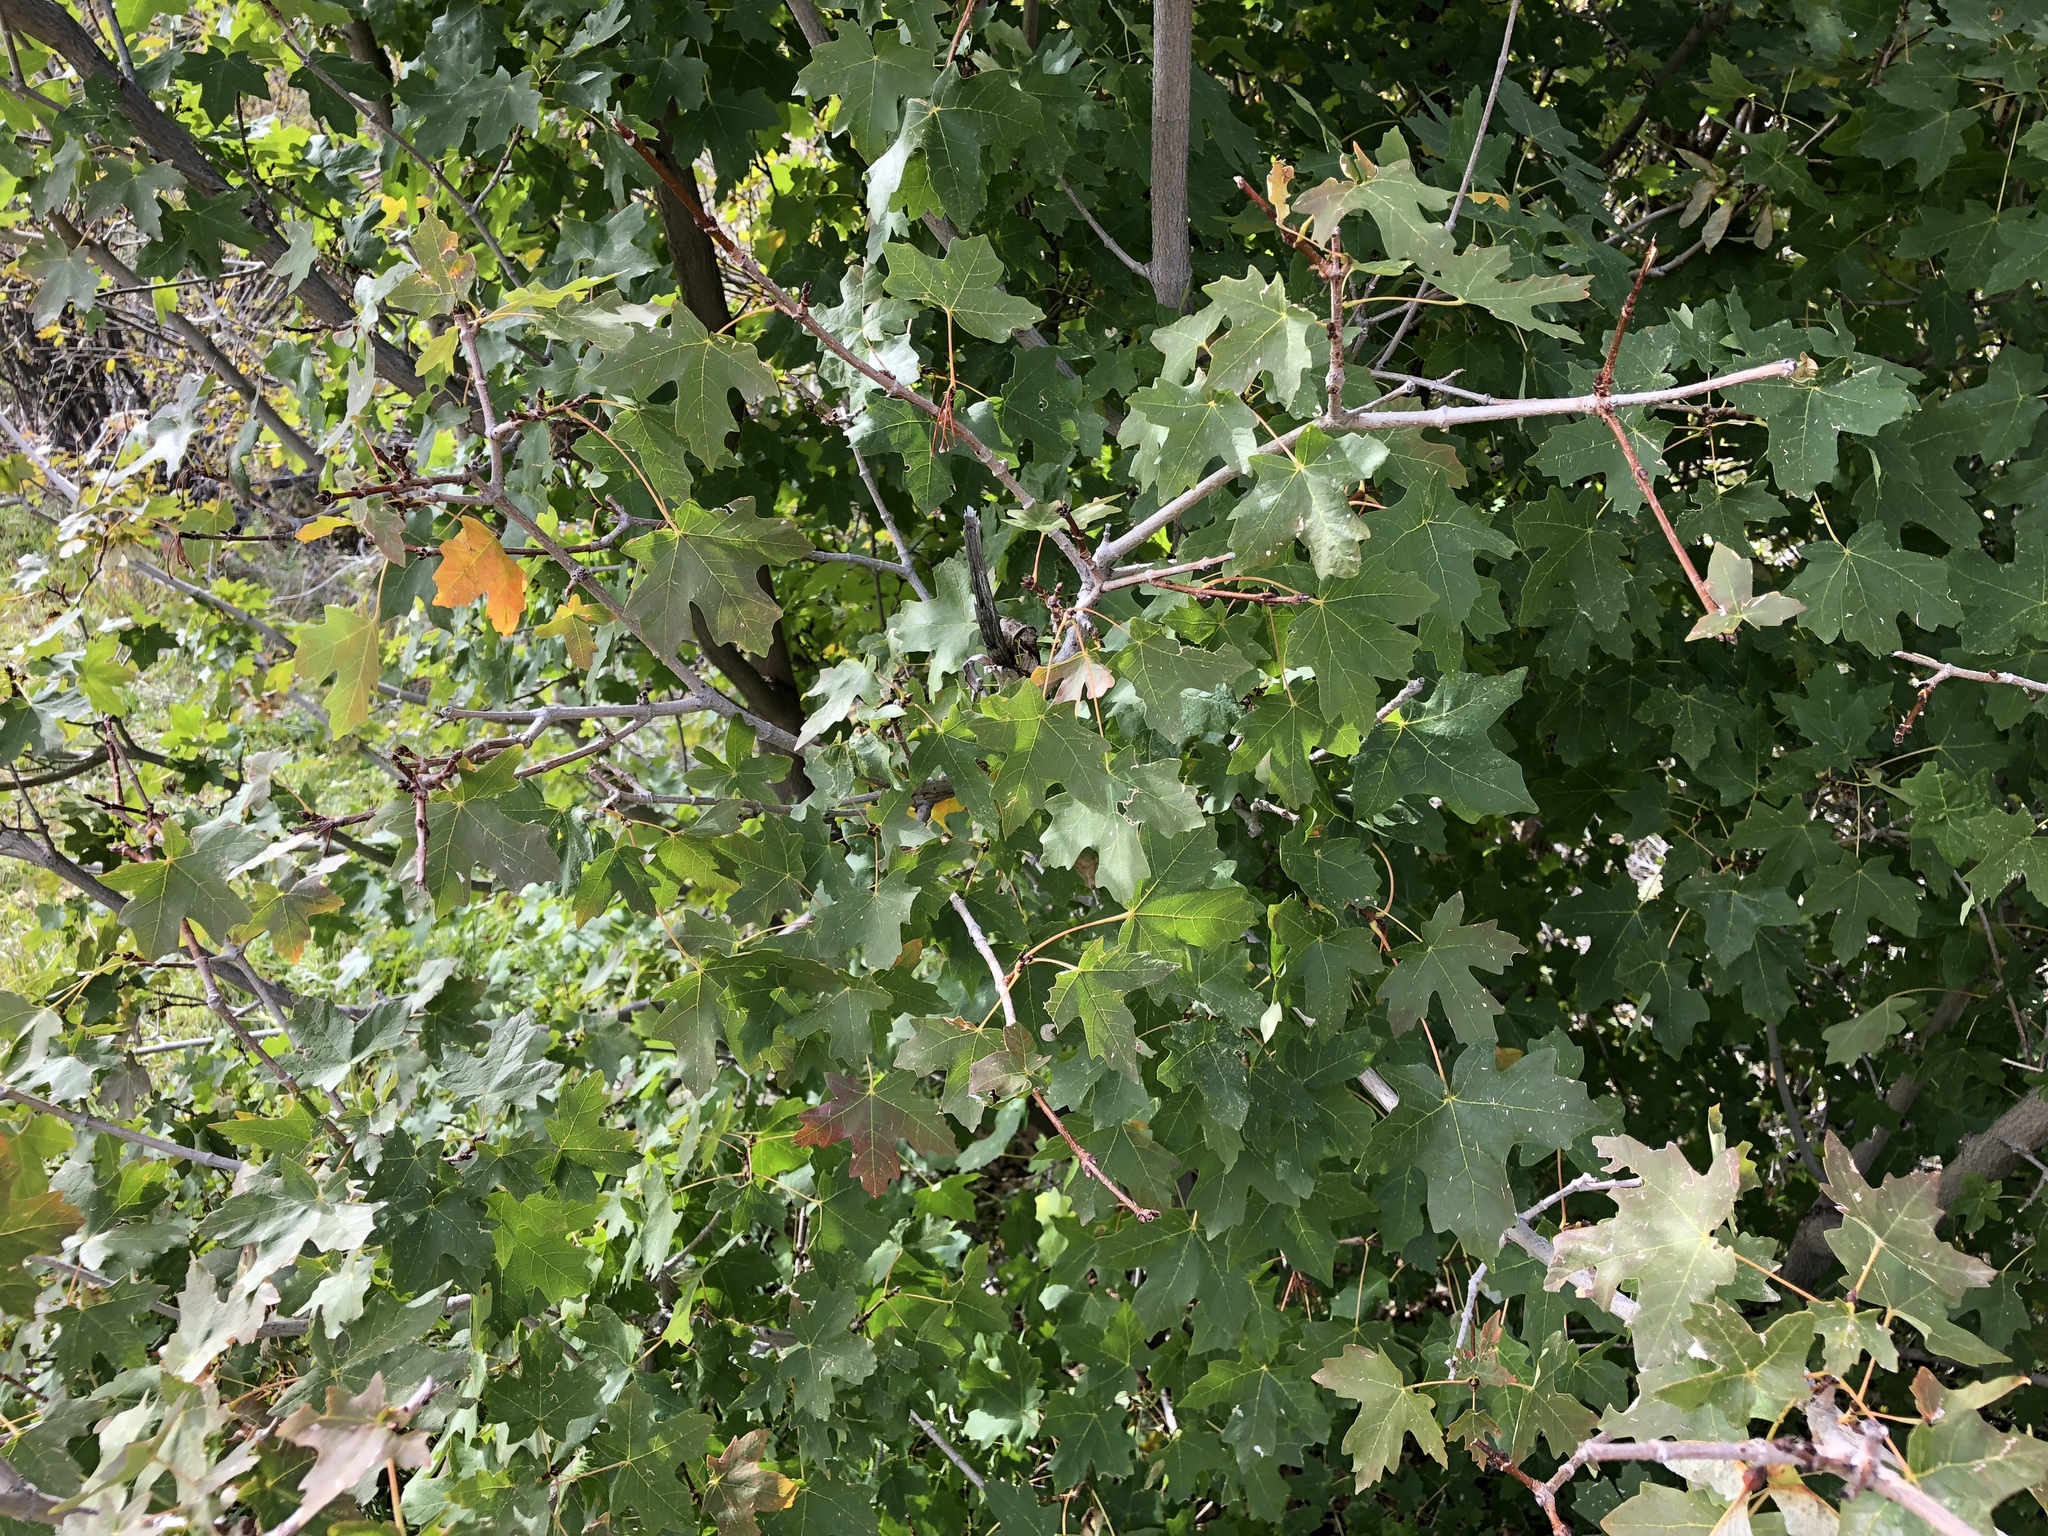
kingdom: Plantae
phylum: Tracheophyta
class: Magnoliopsida
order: Sapindales
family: Sapindaceae
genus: Acer
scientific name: Acer grandidentatum
